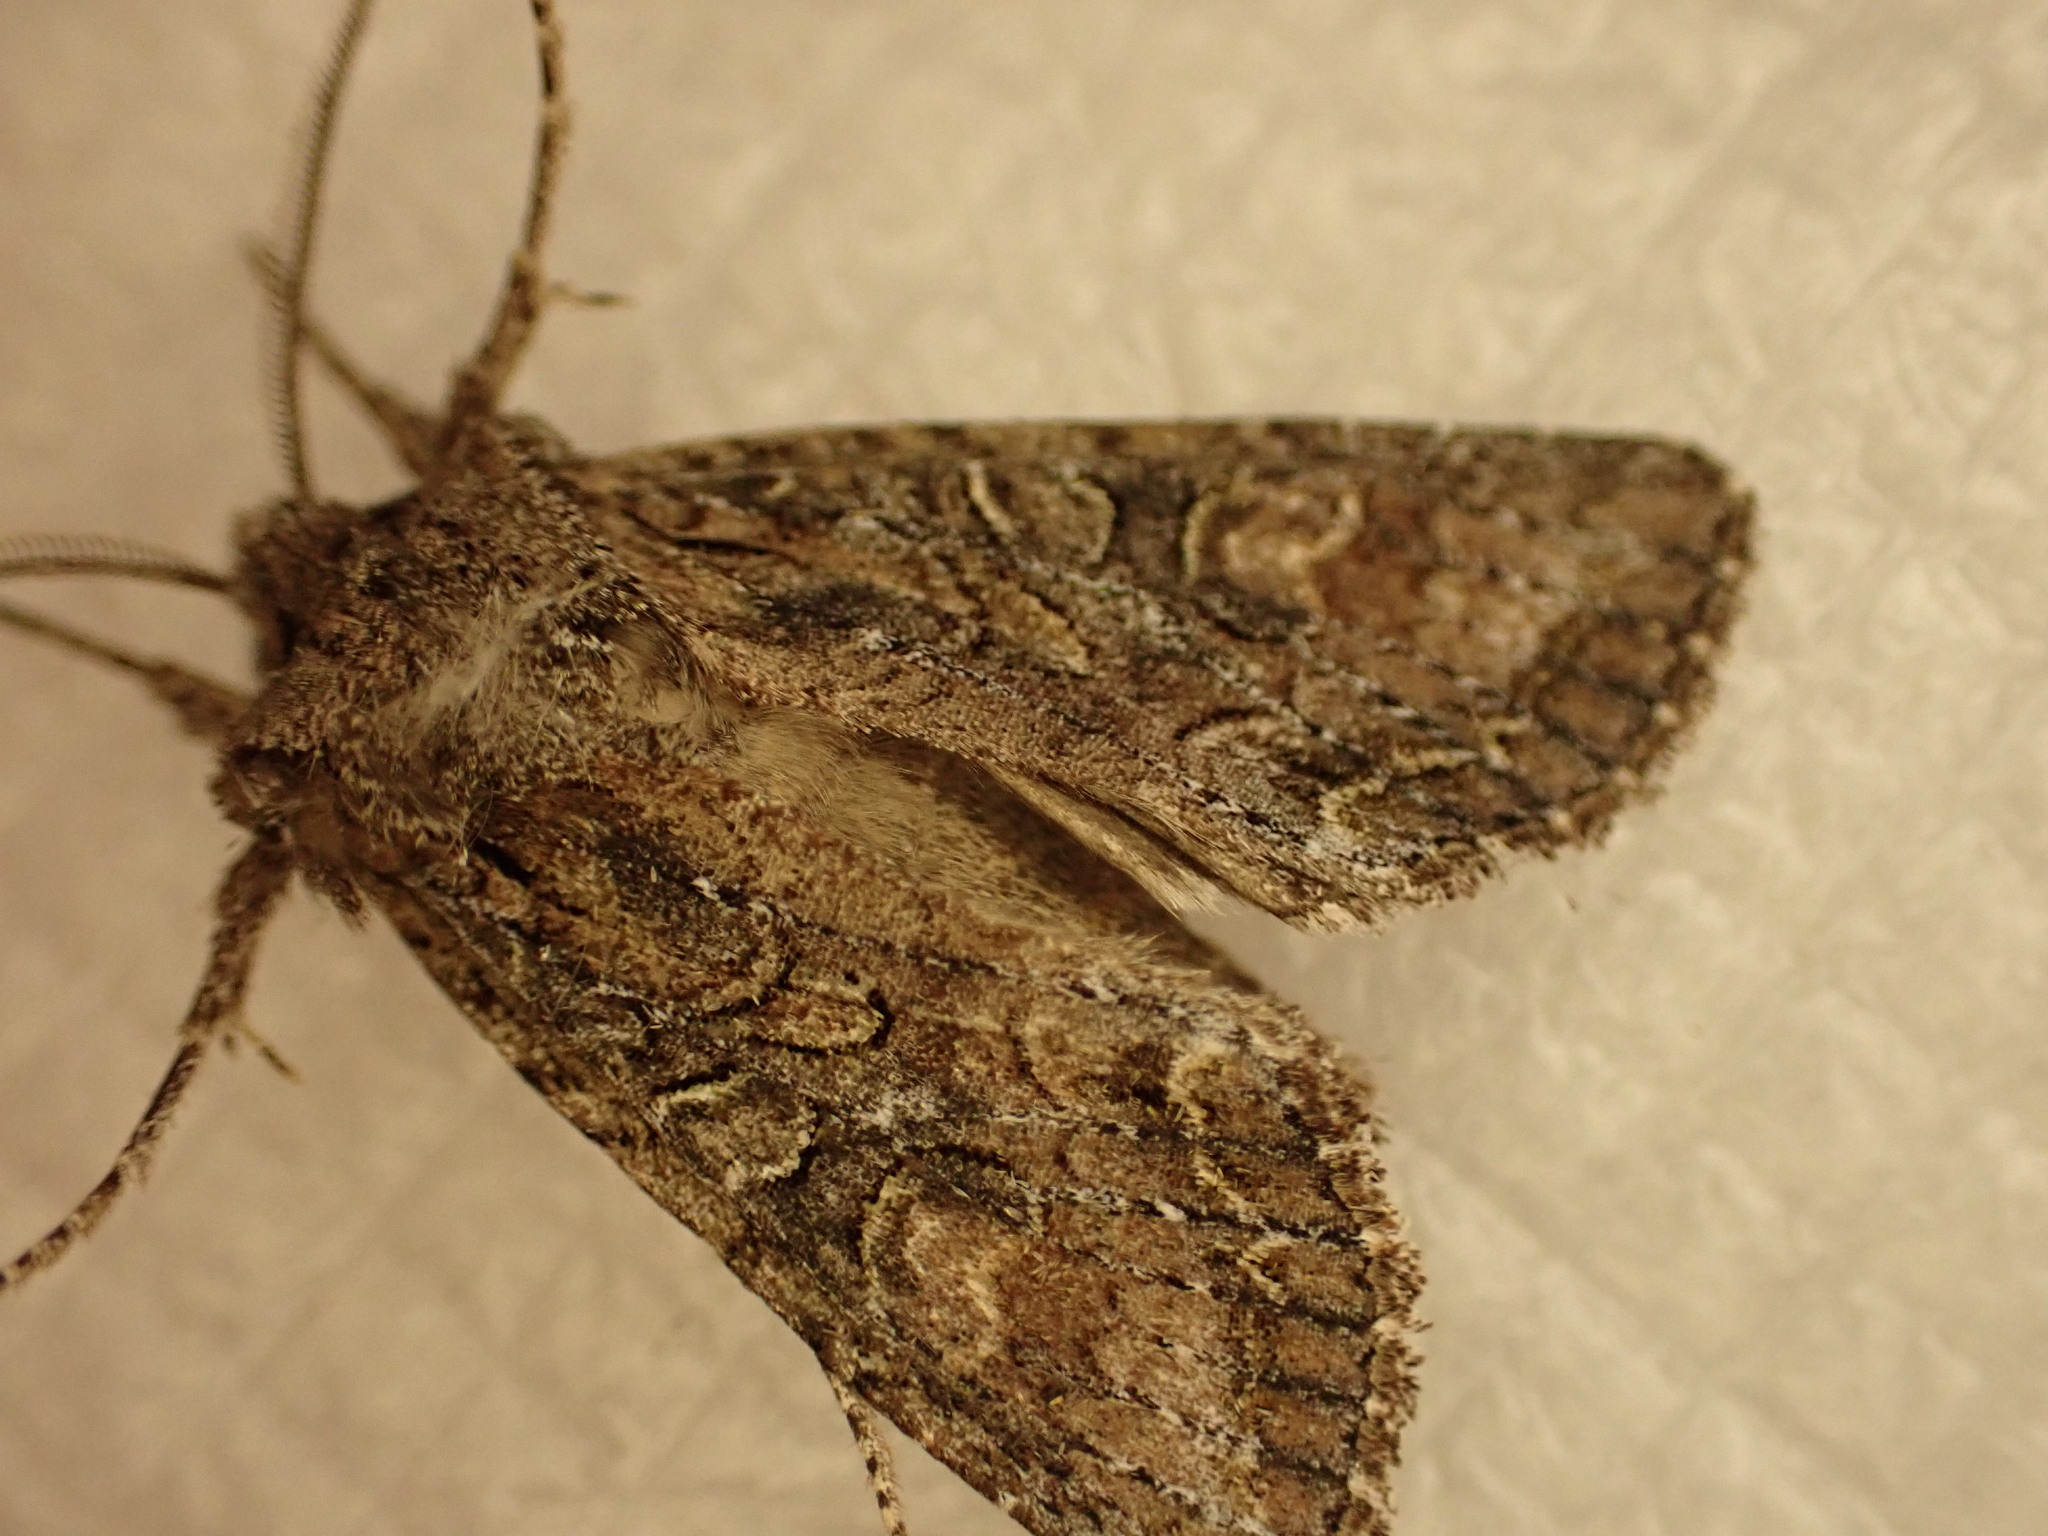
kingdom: Animalia
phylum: Arthropoda
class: Insecta
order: Lepidoptera
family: Noctuidae
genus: Ichneutica
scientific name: Ichneutica mutans
